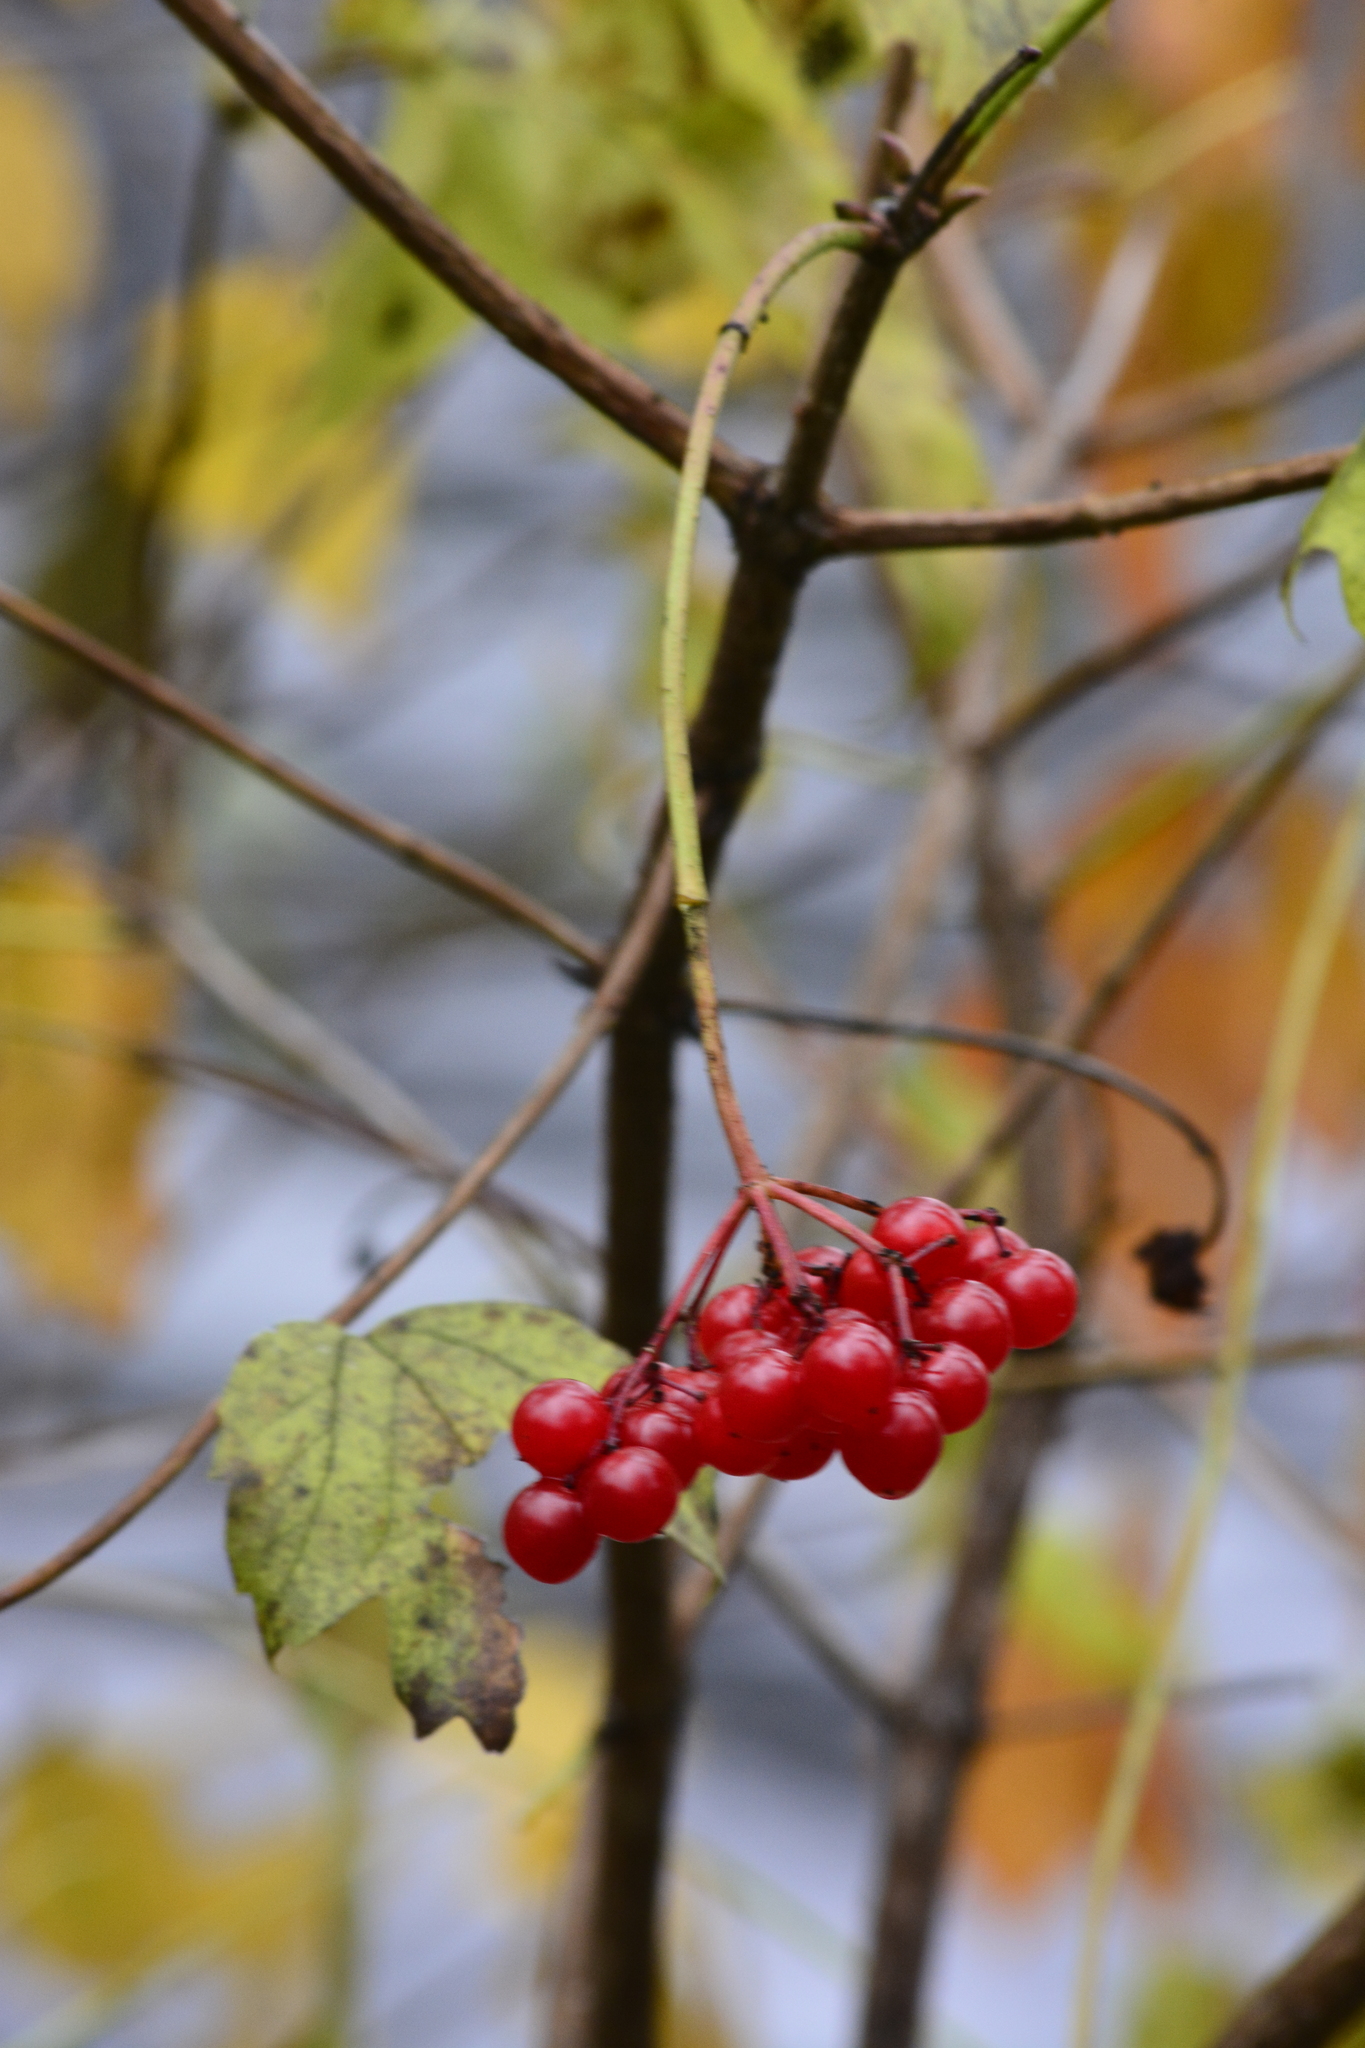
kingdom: Plantae
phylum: Tracheophyta
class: Magnoliopsida
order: Dipsacales
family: Viburnaceae
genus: Viburnum
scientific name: Viburnum opulus
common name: Guelder-rose
